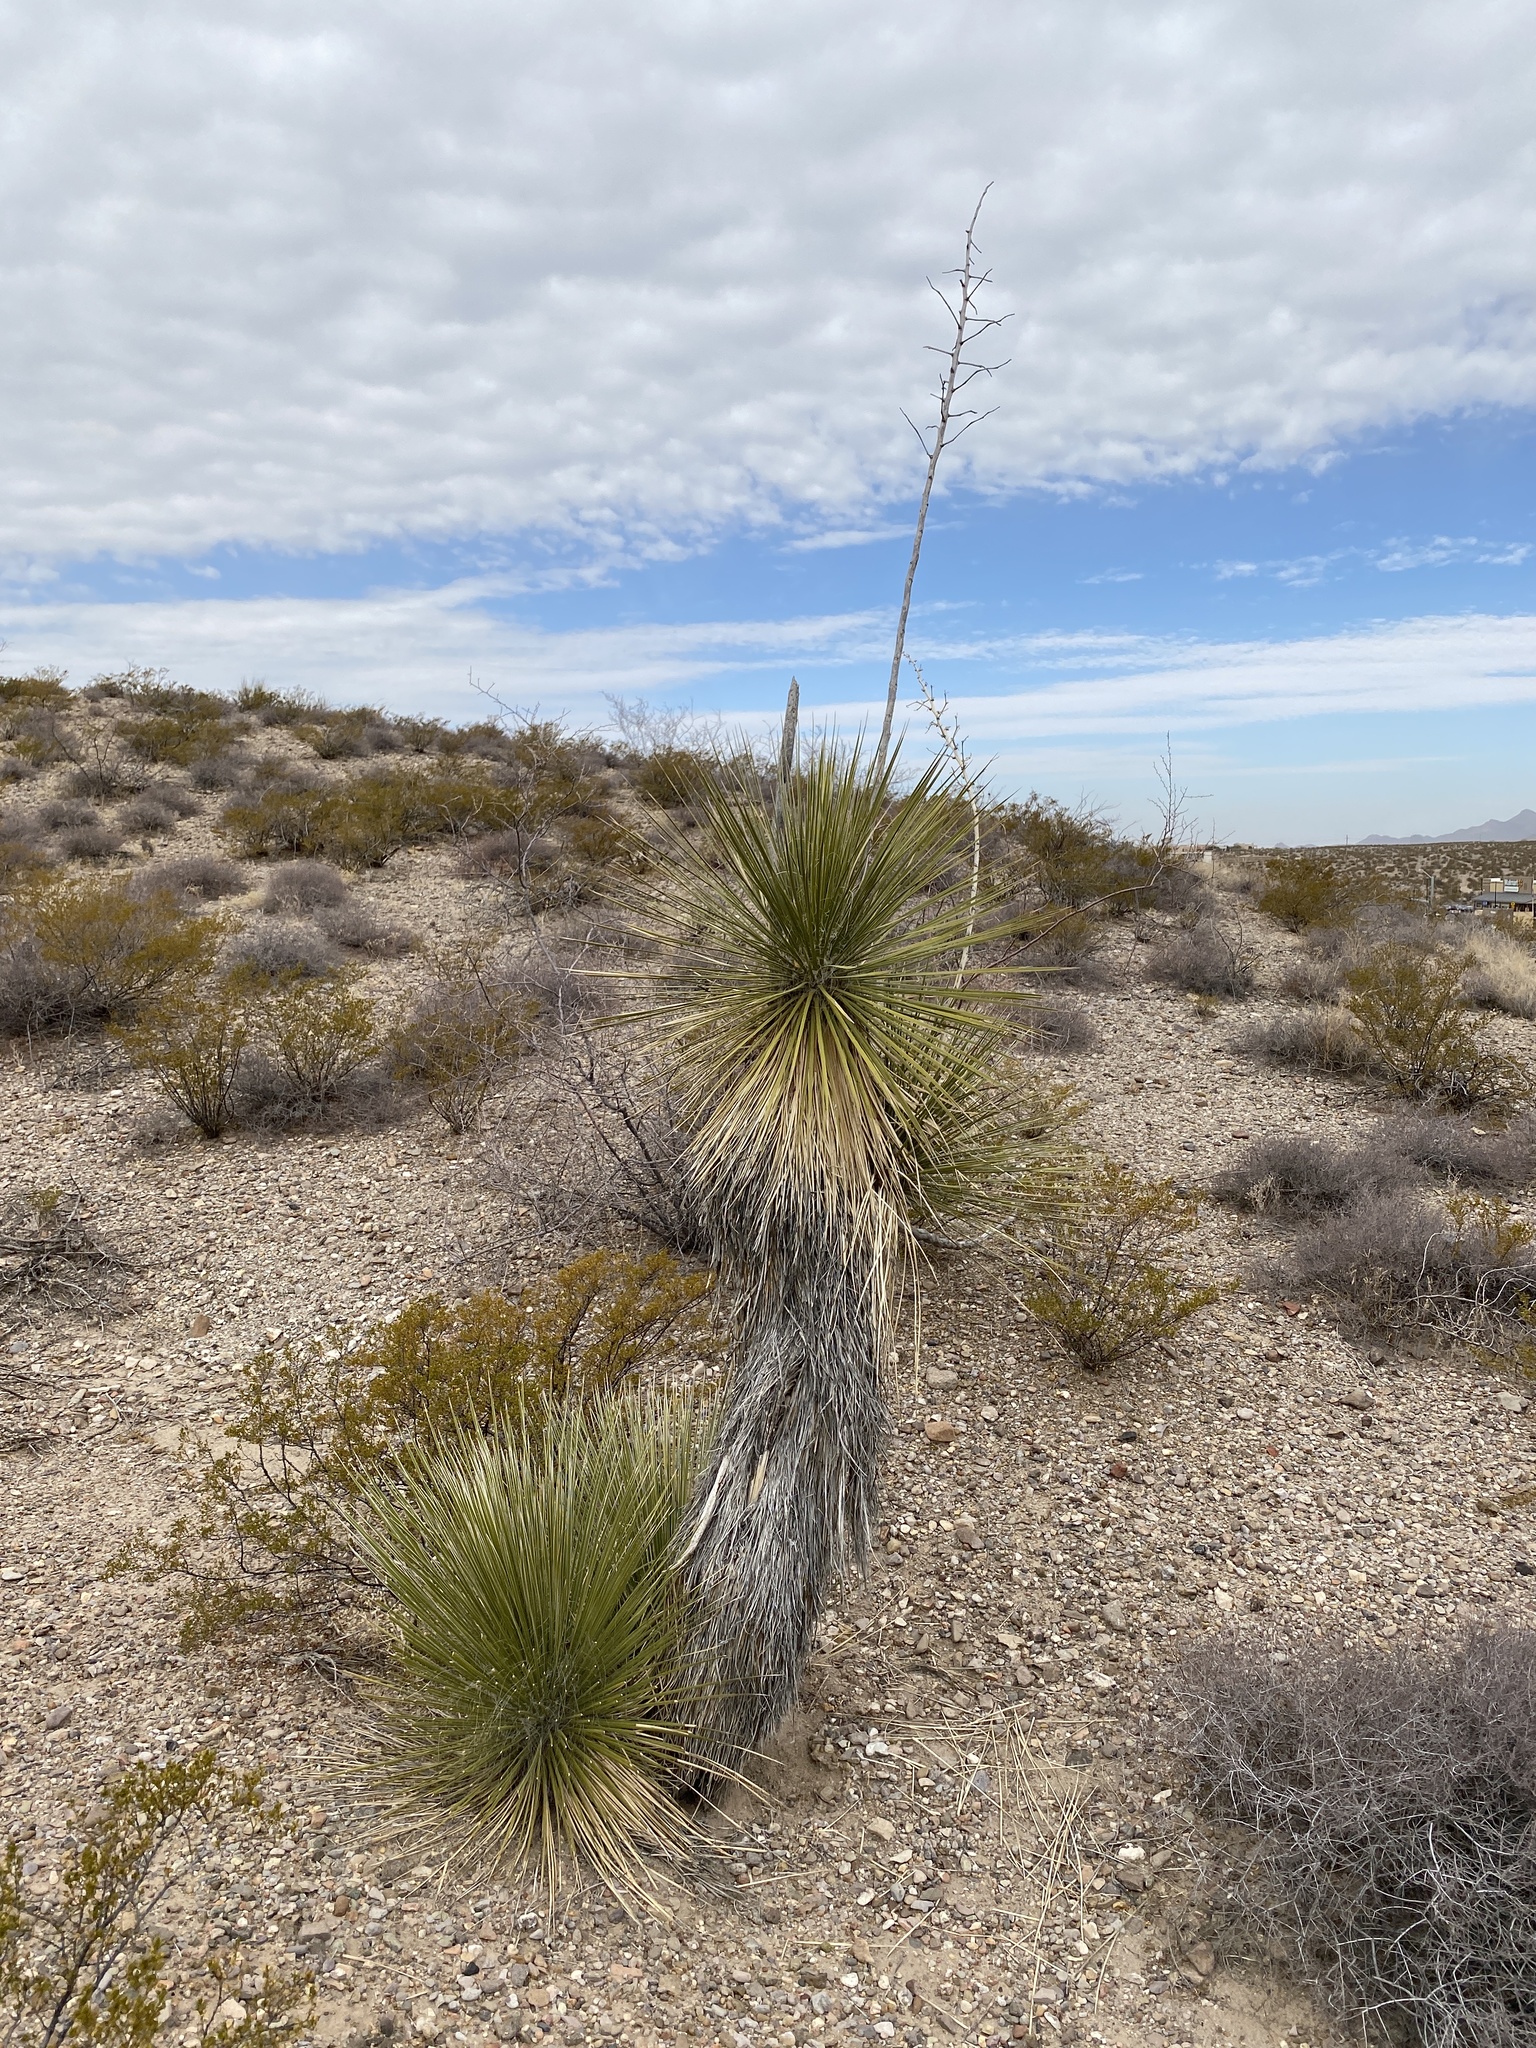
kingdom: Plantae
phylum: Tracheophyta
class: Liliopsida
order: Asparagales
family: Asparagaceae
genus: Yucca
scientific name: Yucca elata
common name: Palmella
